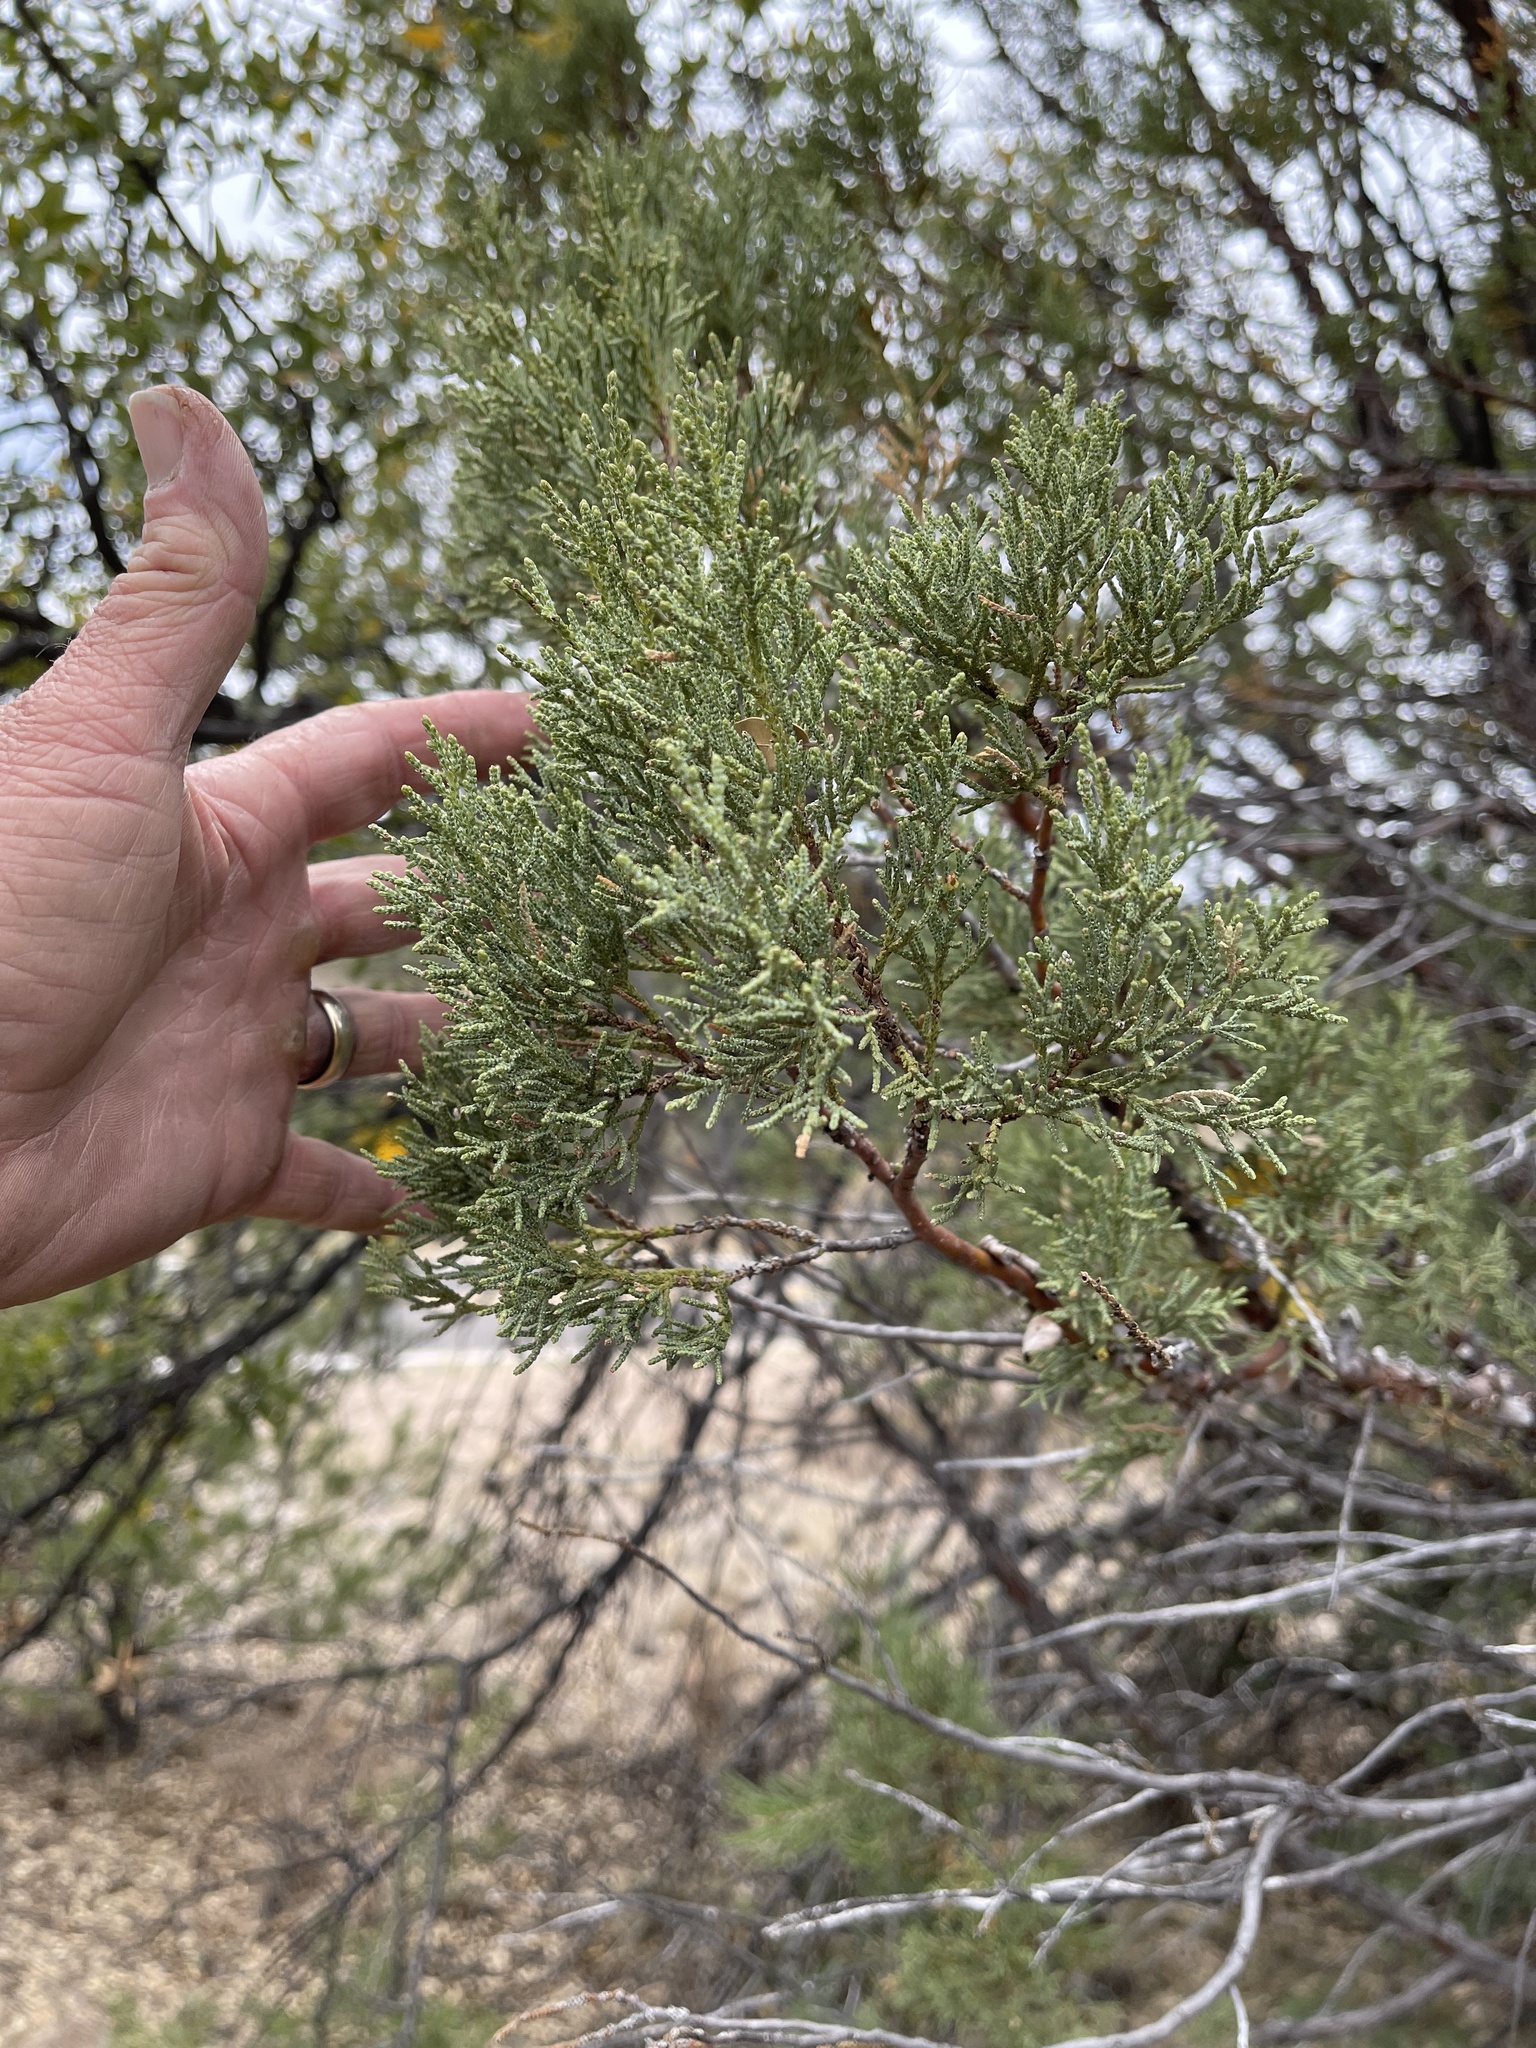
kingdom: Plantae
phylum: Tracheophyta
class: Pinopsida
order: Pinales
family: Cupressaceae
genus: Juniperus
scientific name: Juniperus deppeana
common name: Alligator juniper
